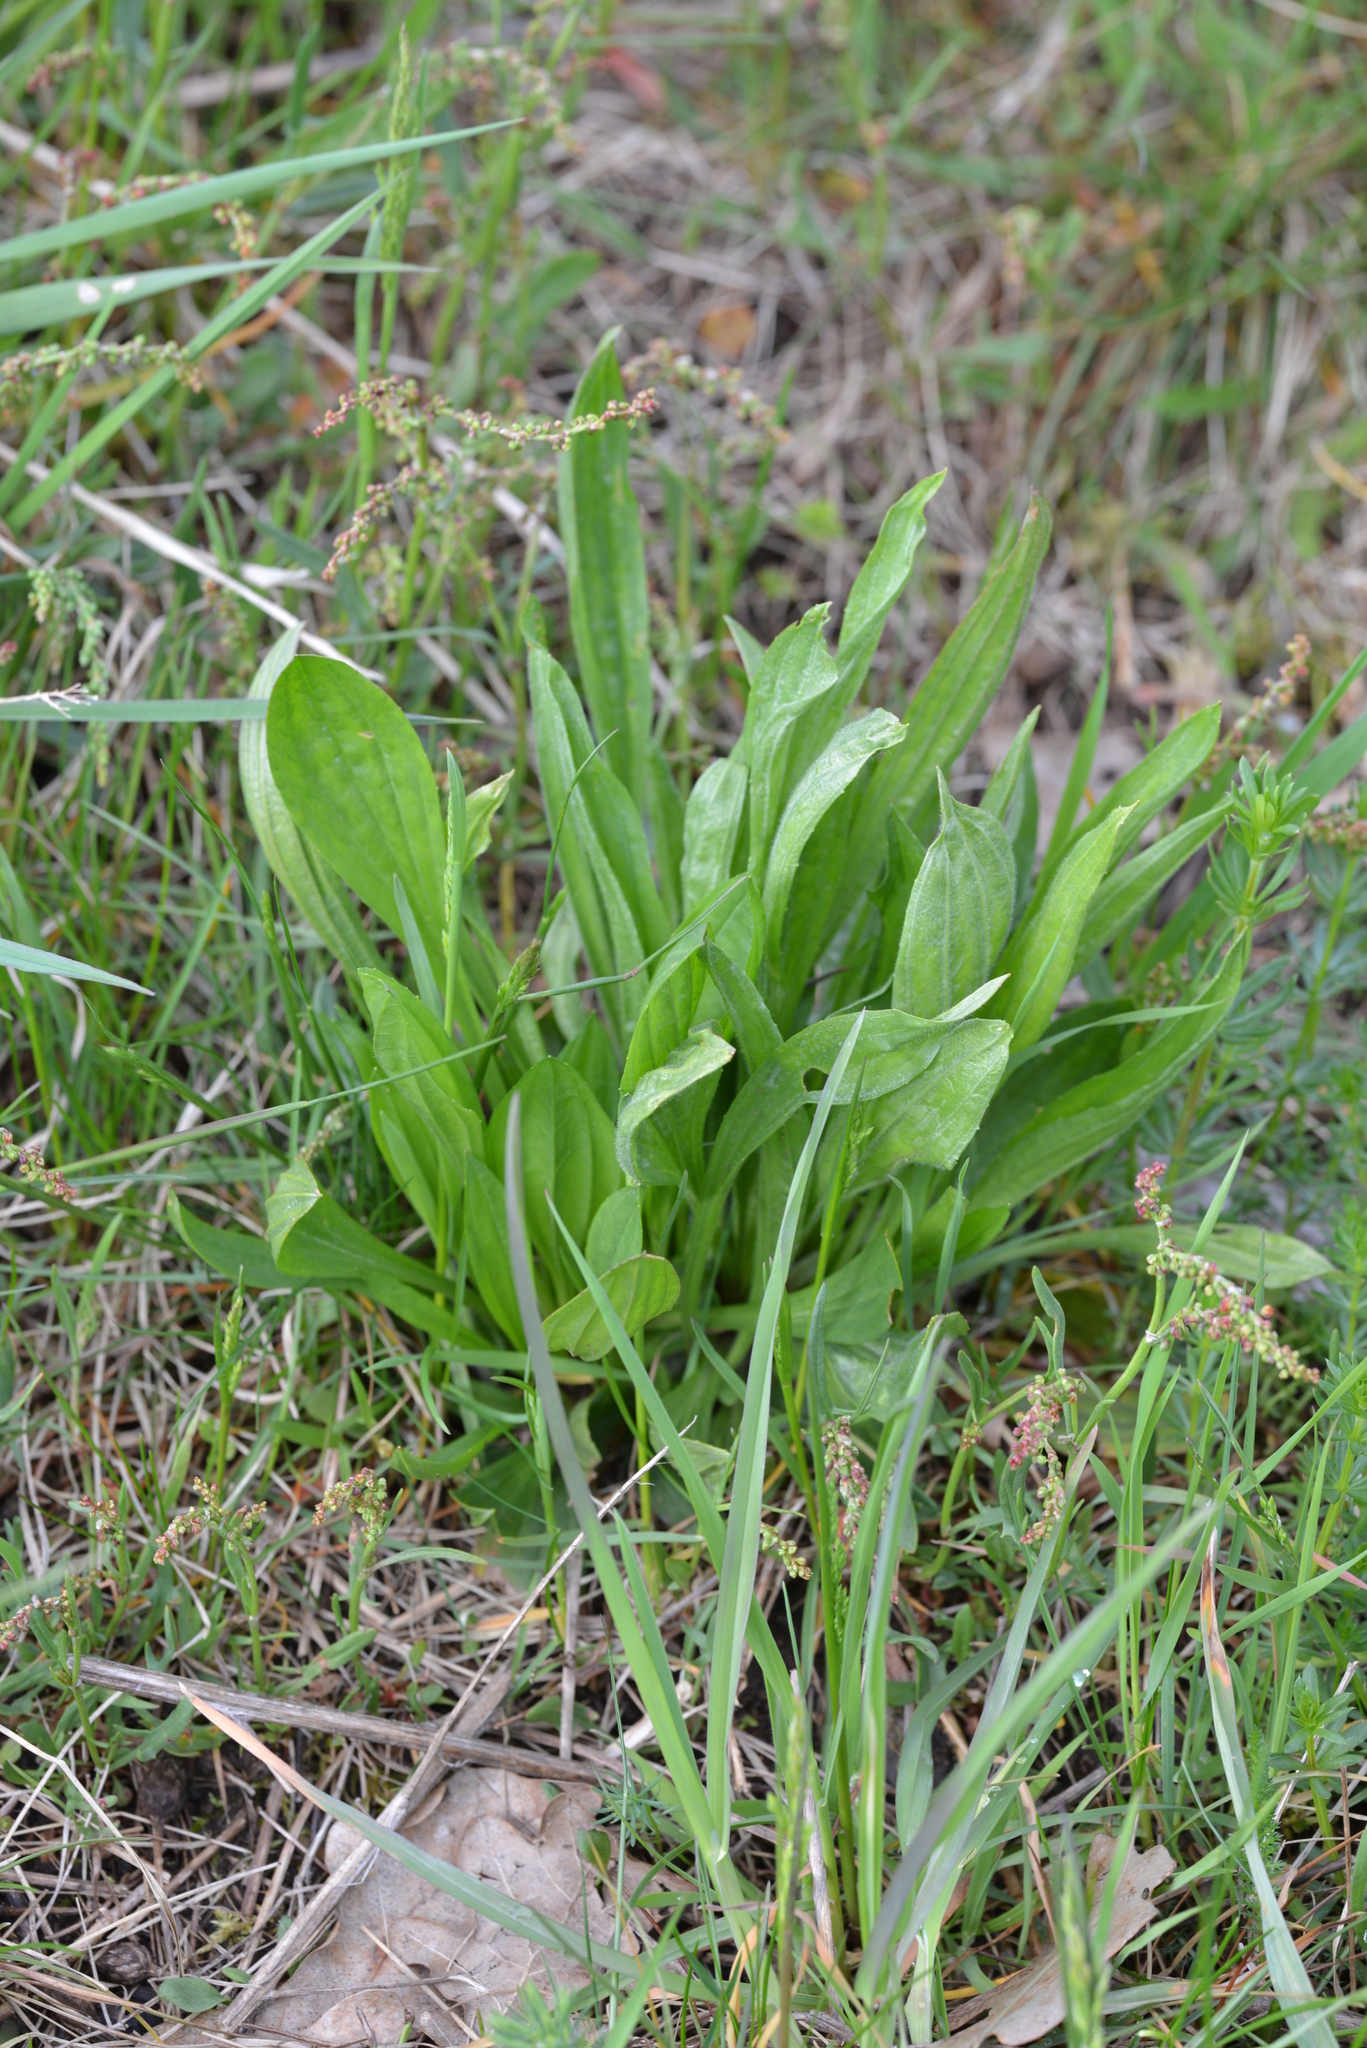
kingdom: Plantae
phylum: Tracheophyta
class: Magnoliopsida
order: Lamiales
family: Plantaginaceae
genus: Plantago
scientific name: Plantago lanceolata
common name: Ribwort plantain
